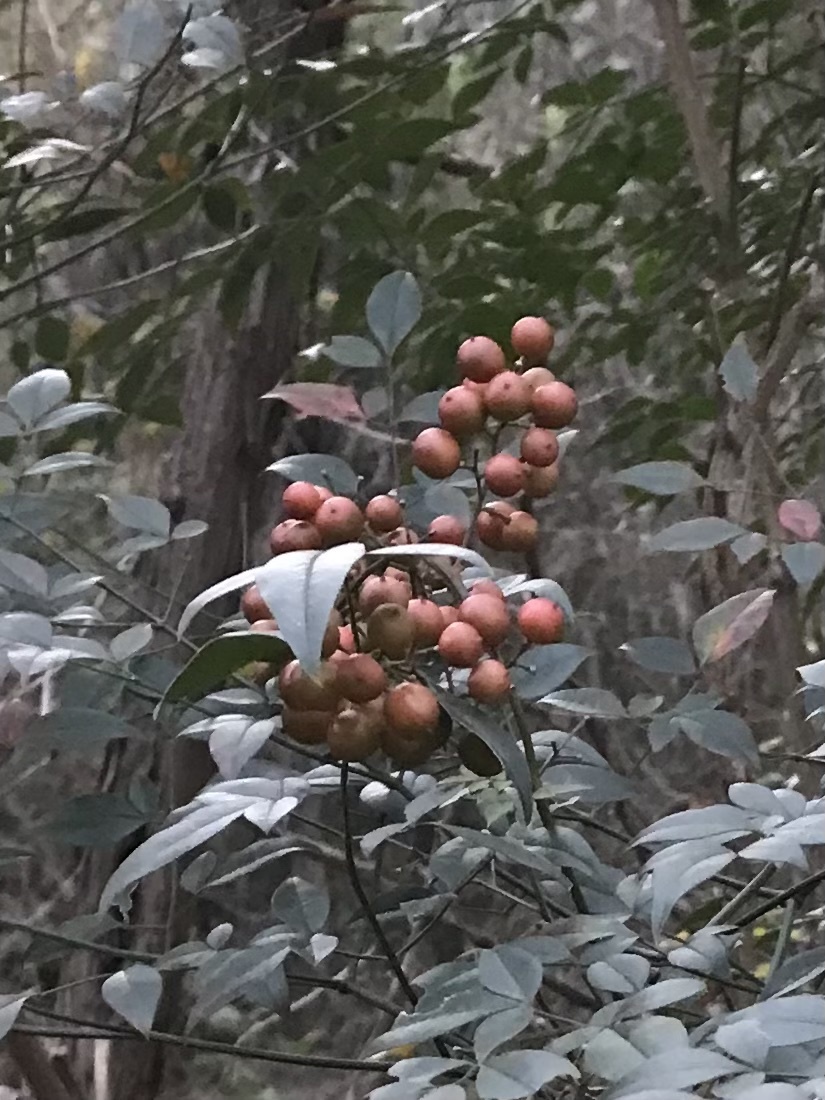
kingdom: Plantae
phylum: Tracheophyta
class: Magnoliopsida
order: Ranunculales
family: Berberidaceae
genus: Nandina
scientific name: Nandina domestica
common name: Sacred bamboo
